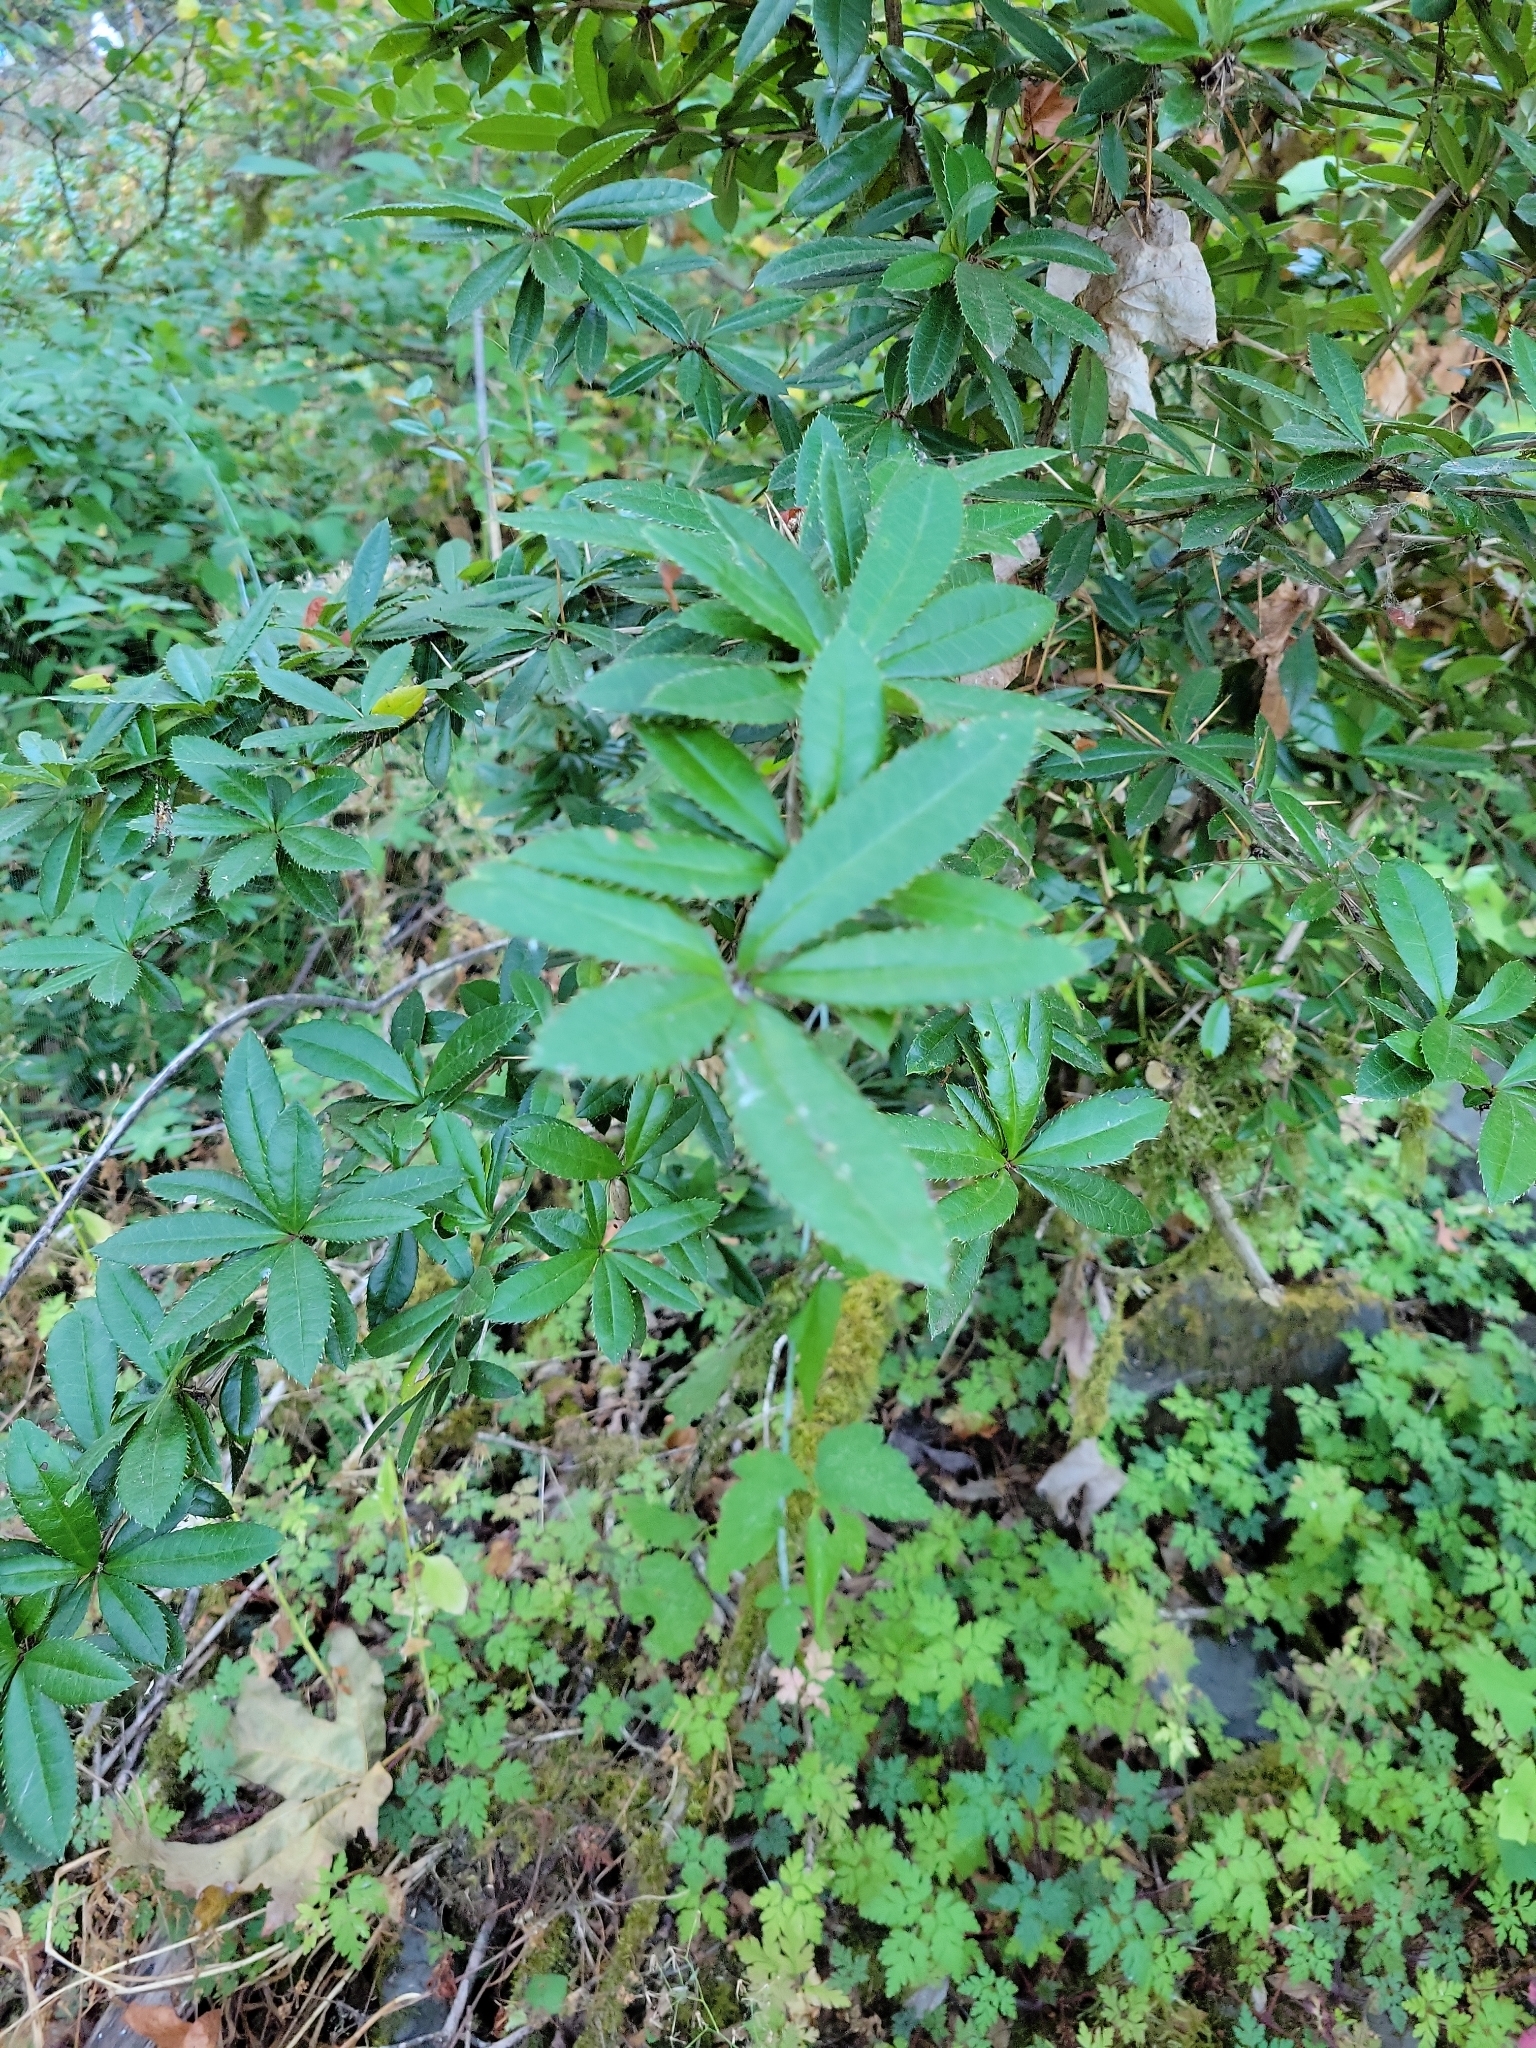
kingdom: Plantae
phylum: Tracheophyta
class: Magnoliopsida
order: Ranunculales
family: Berberidaceae
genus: Berberis
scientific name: Berberis julianae
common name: Wintergreen barberry
